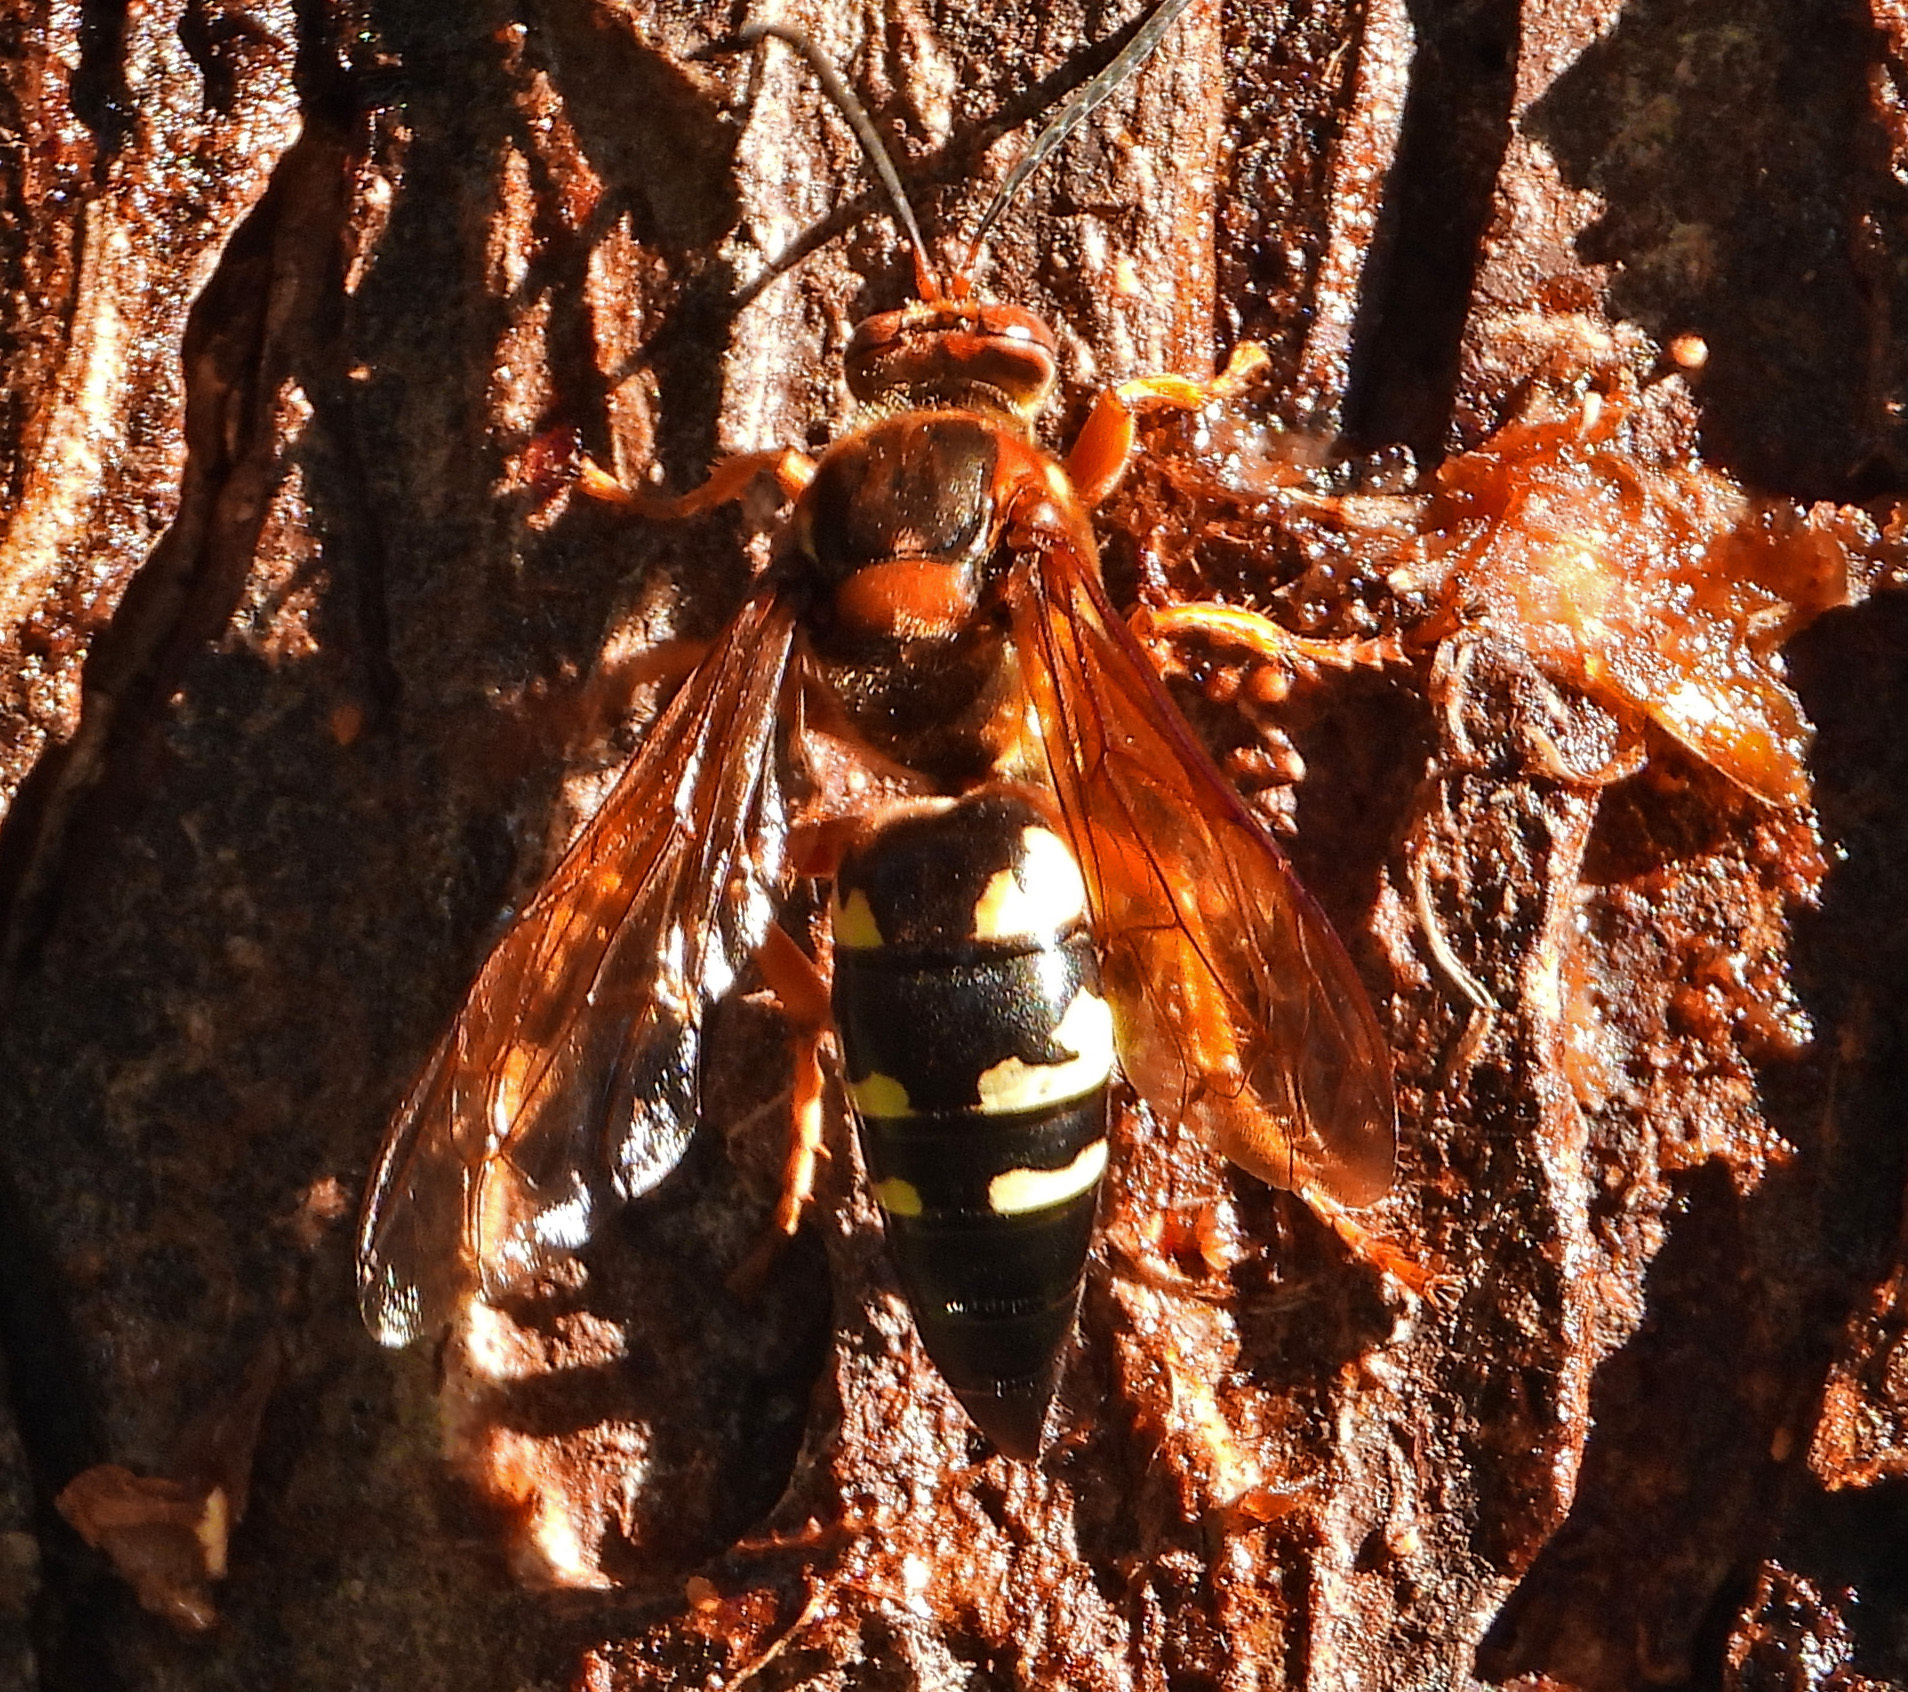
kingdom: Animalia
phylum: Arthropoda
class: Insecta
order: Hymenoptera
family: Crabronidae
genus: Sphecius
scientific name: Sphecius speciosus
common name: Cicada killer
